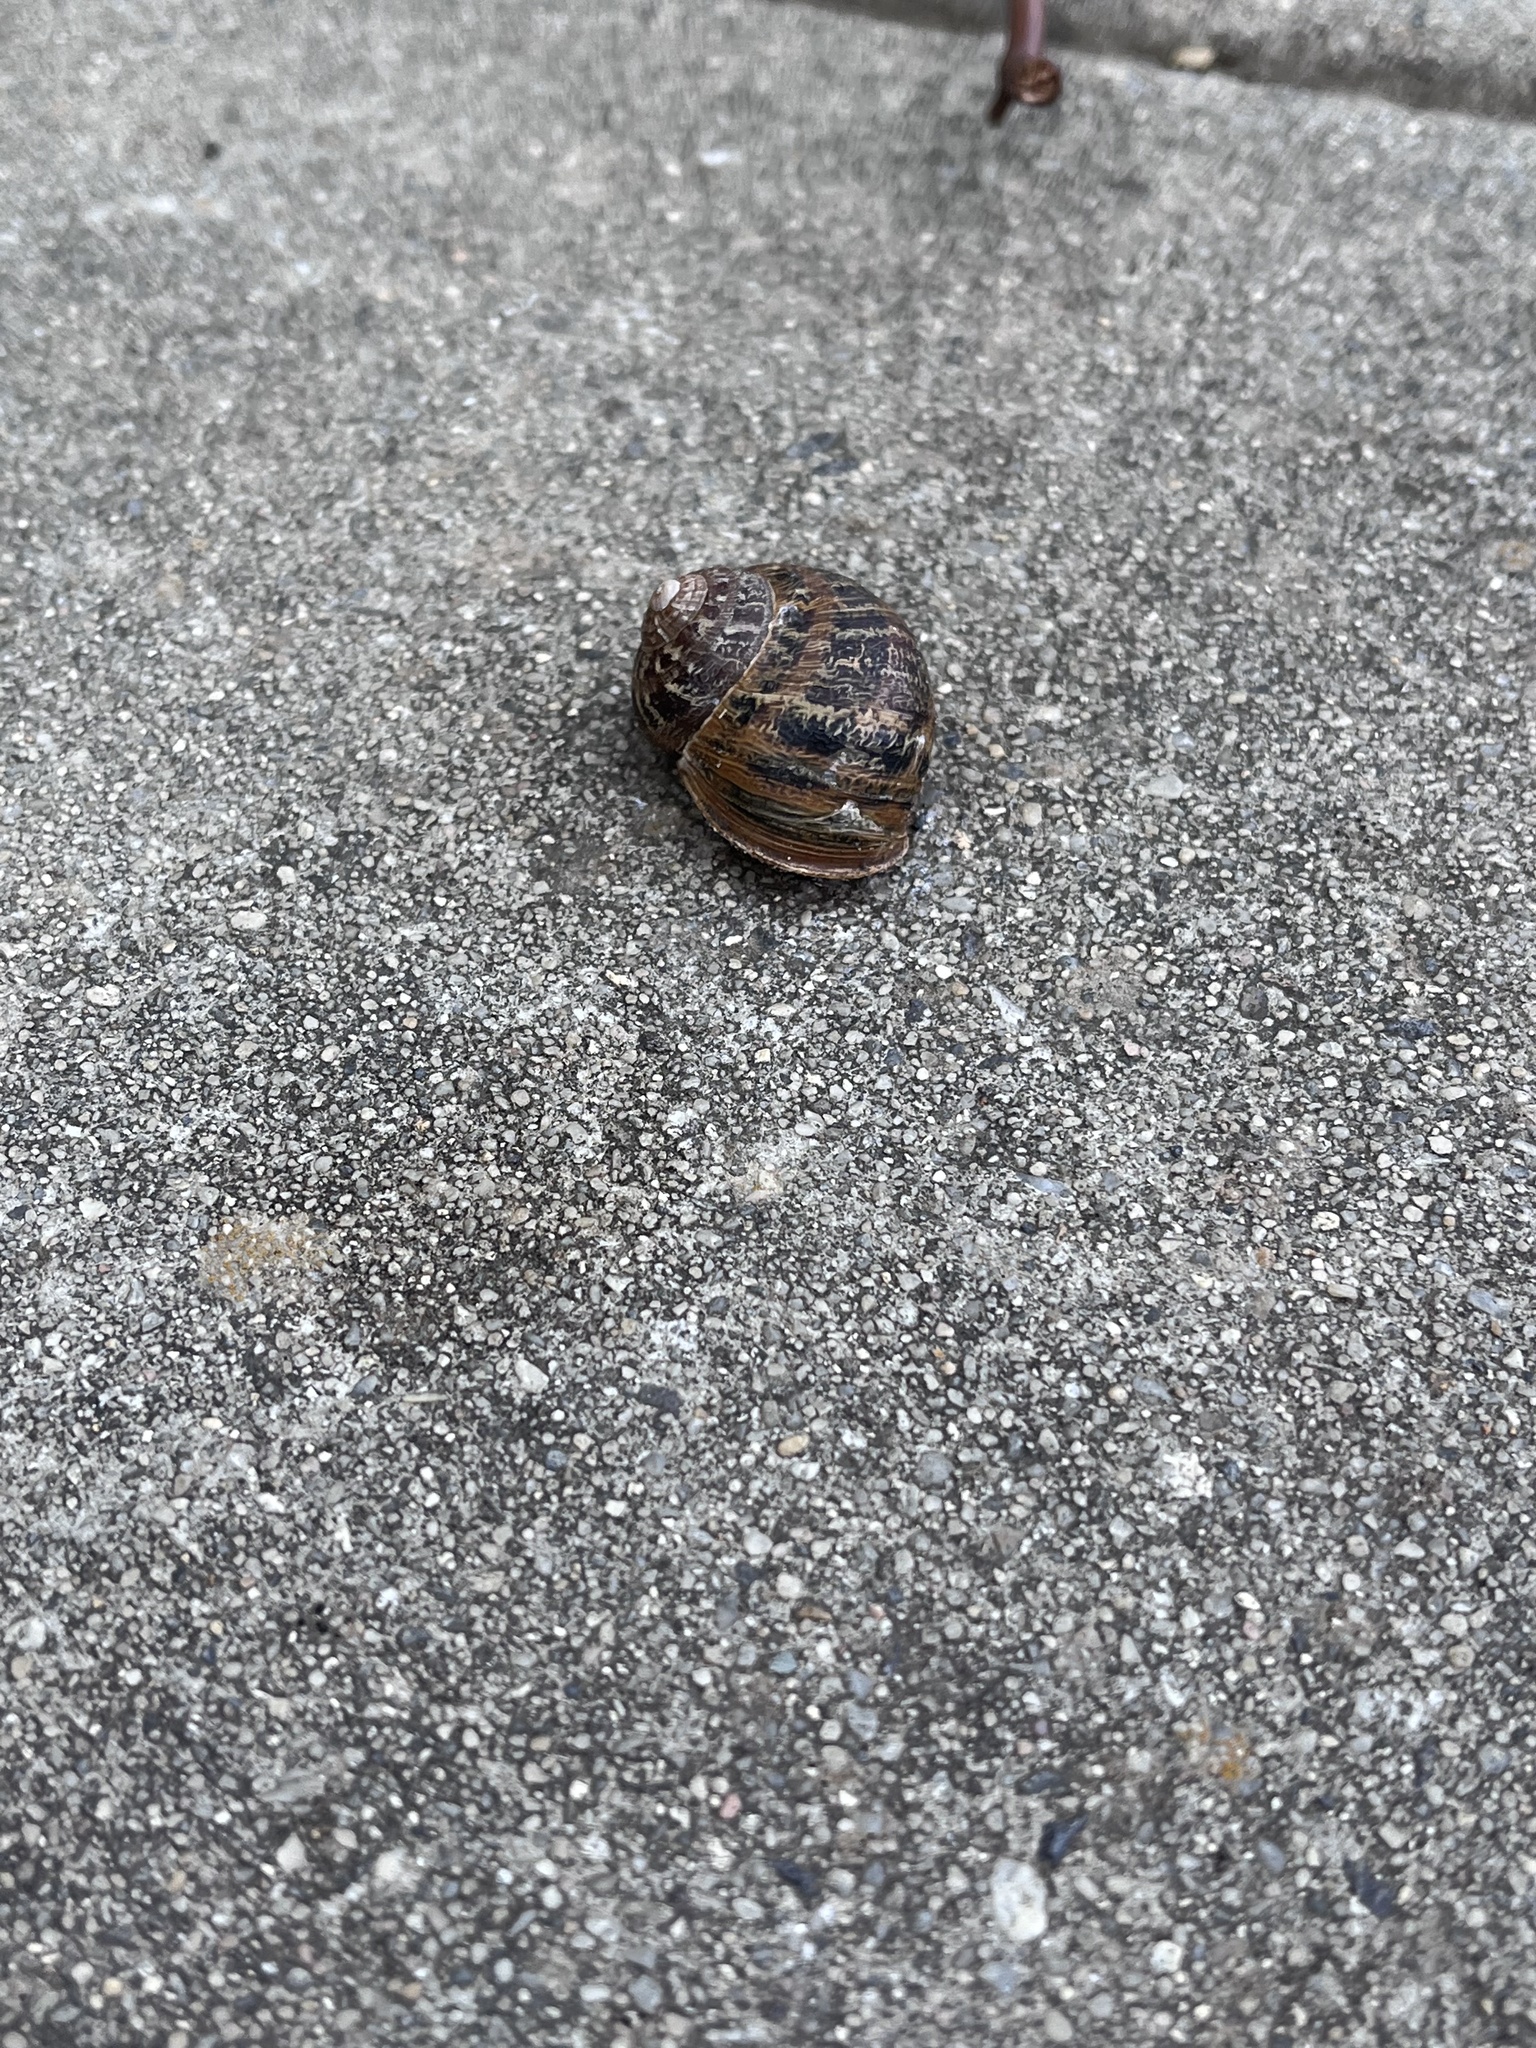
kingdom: Animalia
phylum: Mollusca
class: Gastropoda
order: Stylommatophora
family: Helicidae
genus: Cornu
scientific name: Cornu aspersum
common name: Brown garden snail
